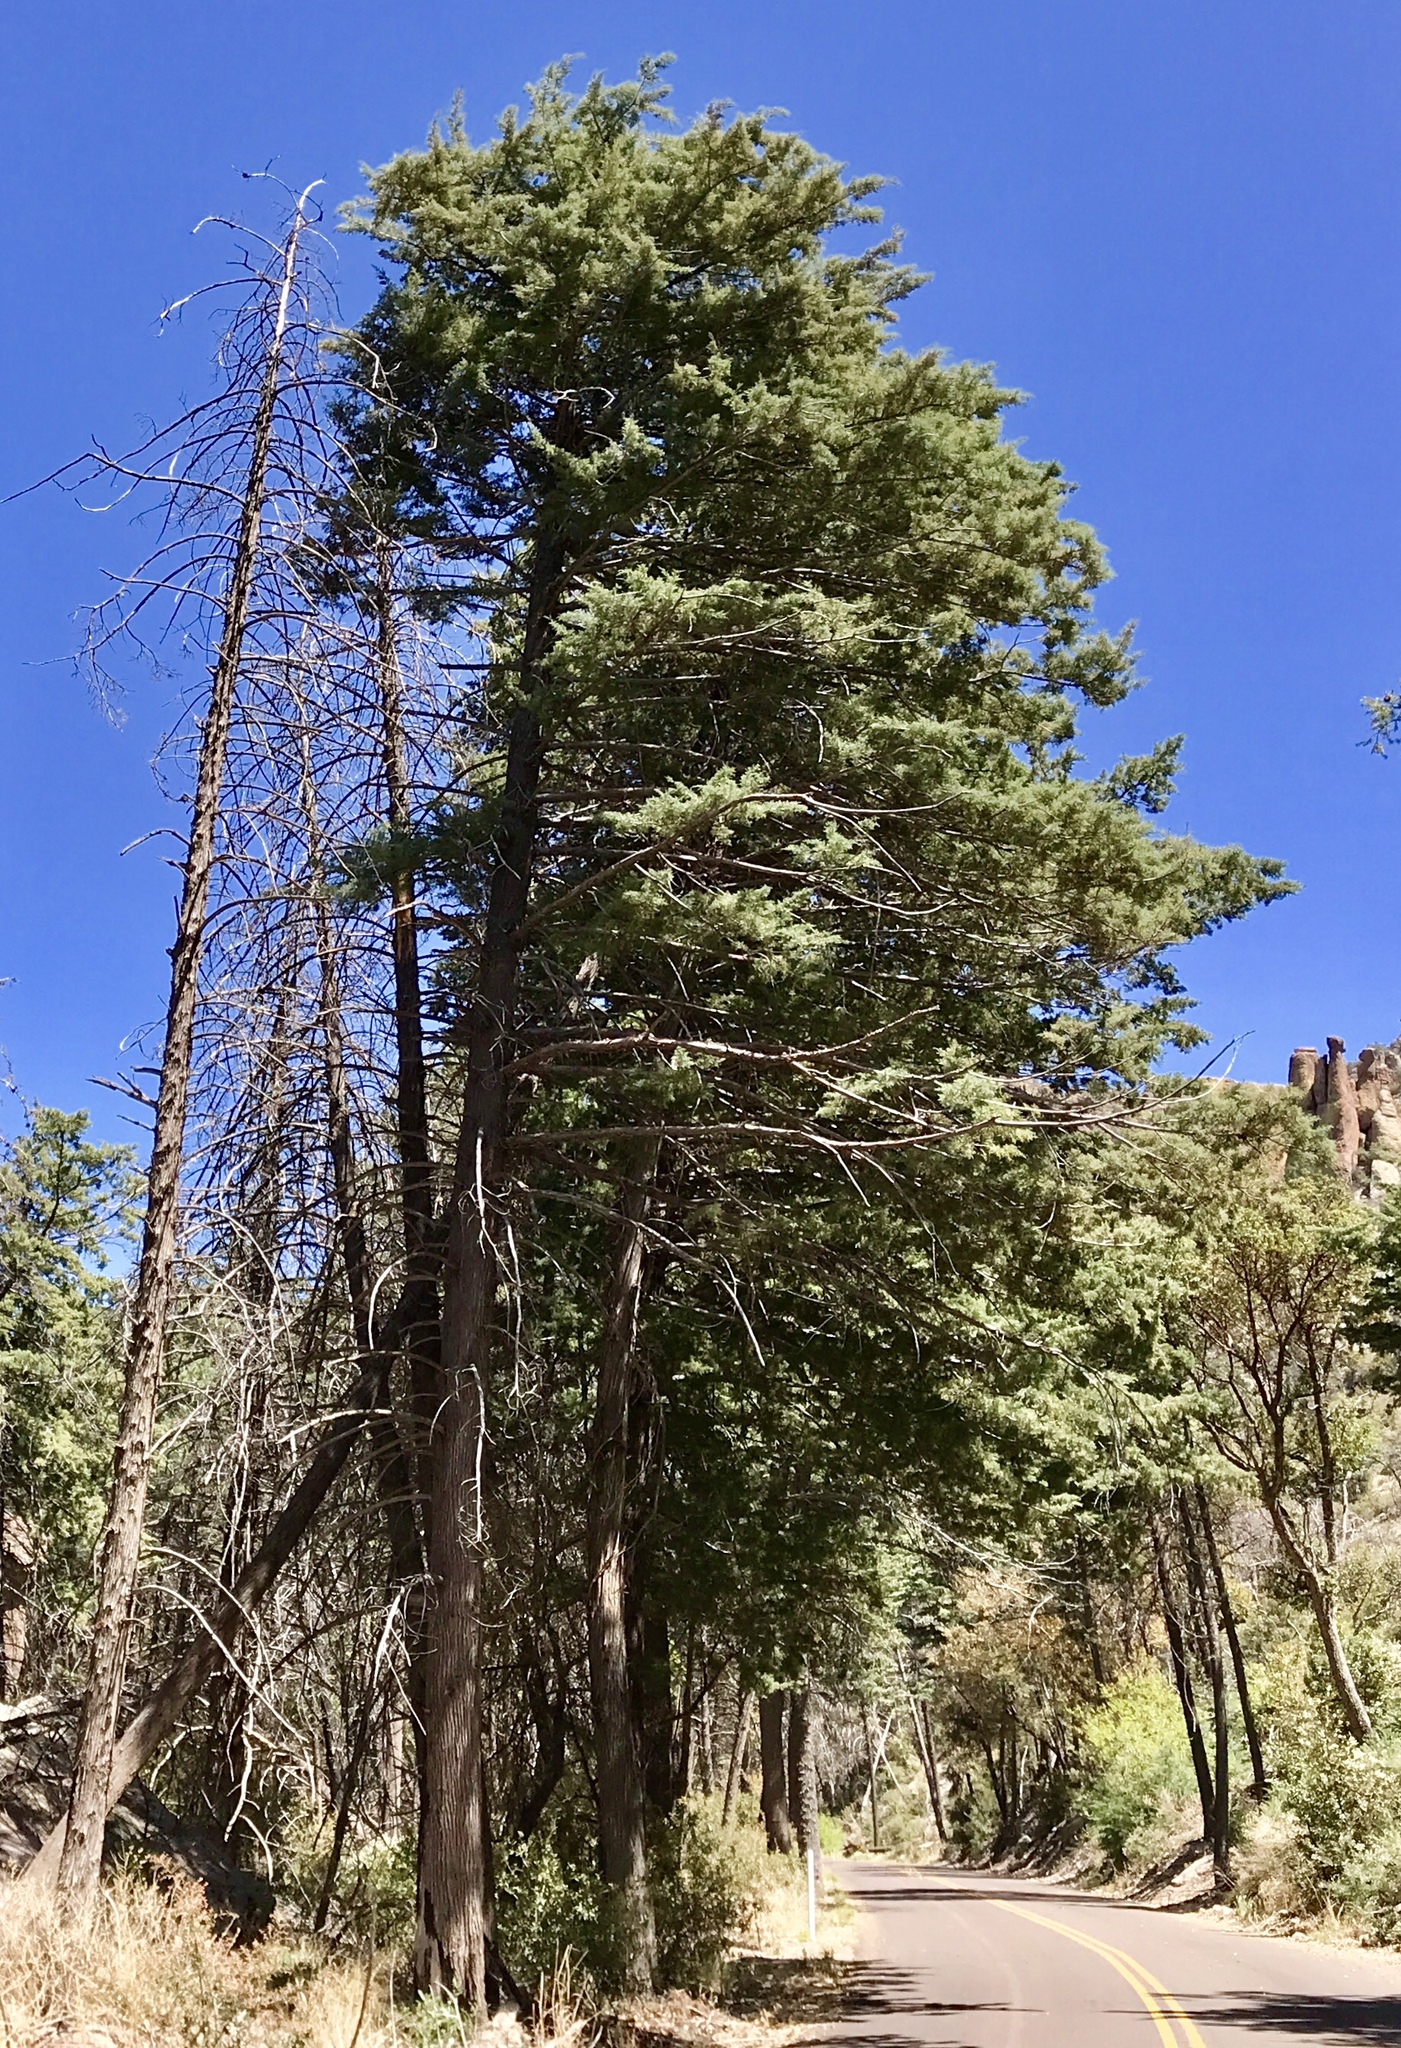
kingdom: Plantae
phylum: Tracheophyta
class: Pinopsida
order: Pinales
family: Cupressaceae
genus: Cupressus
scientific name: Cupressus arizonica
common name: Arizona cypress
